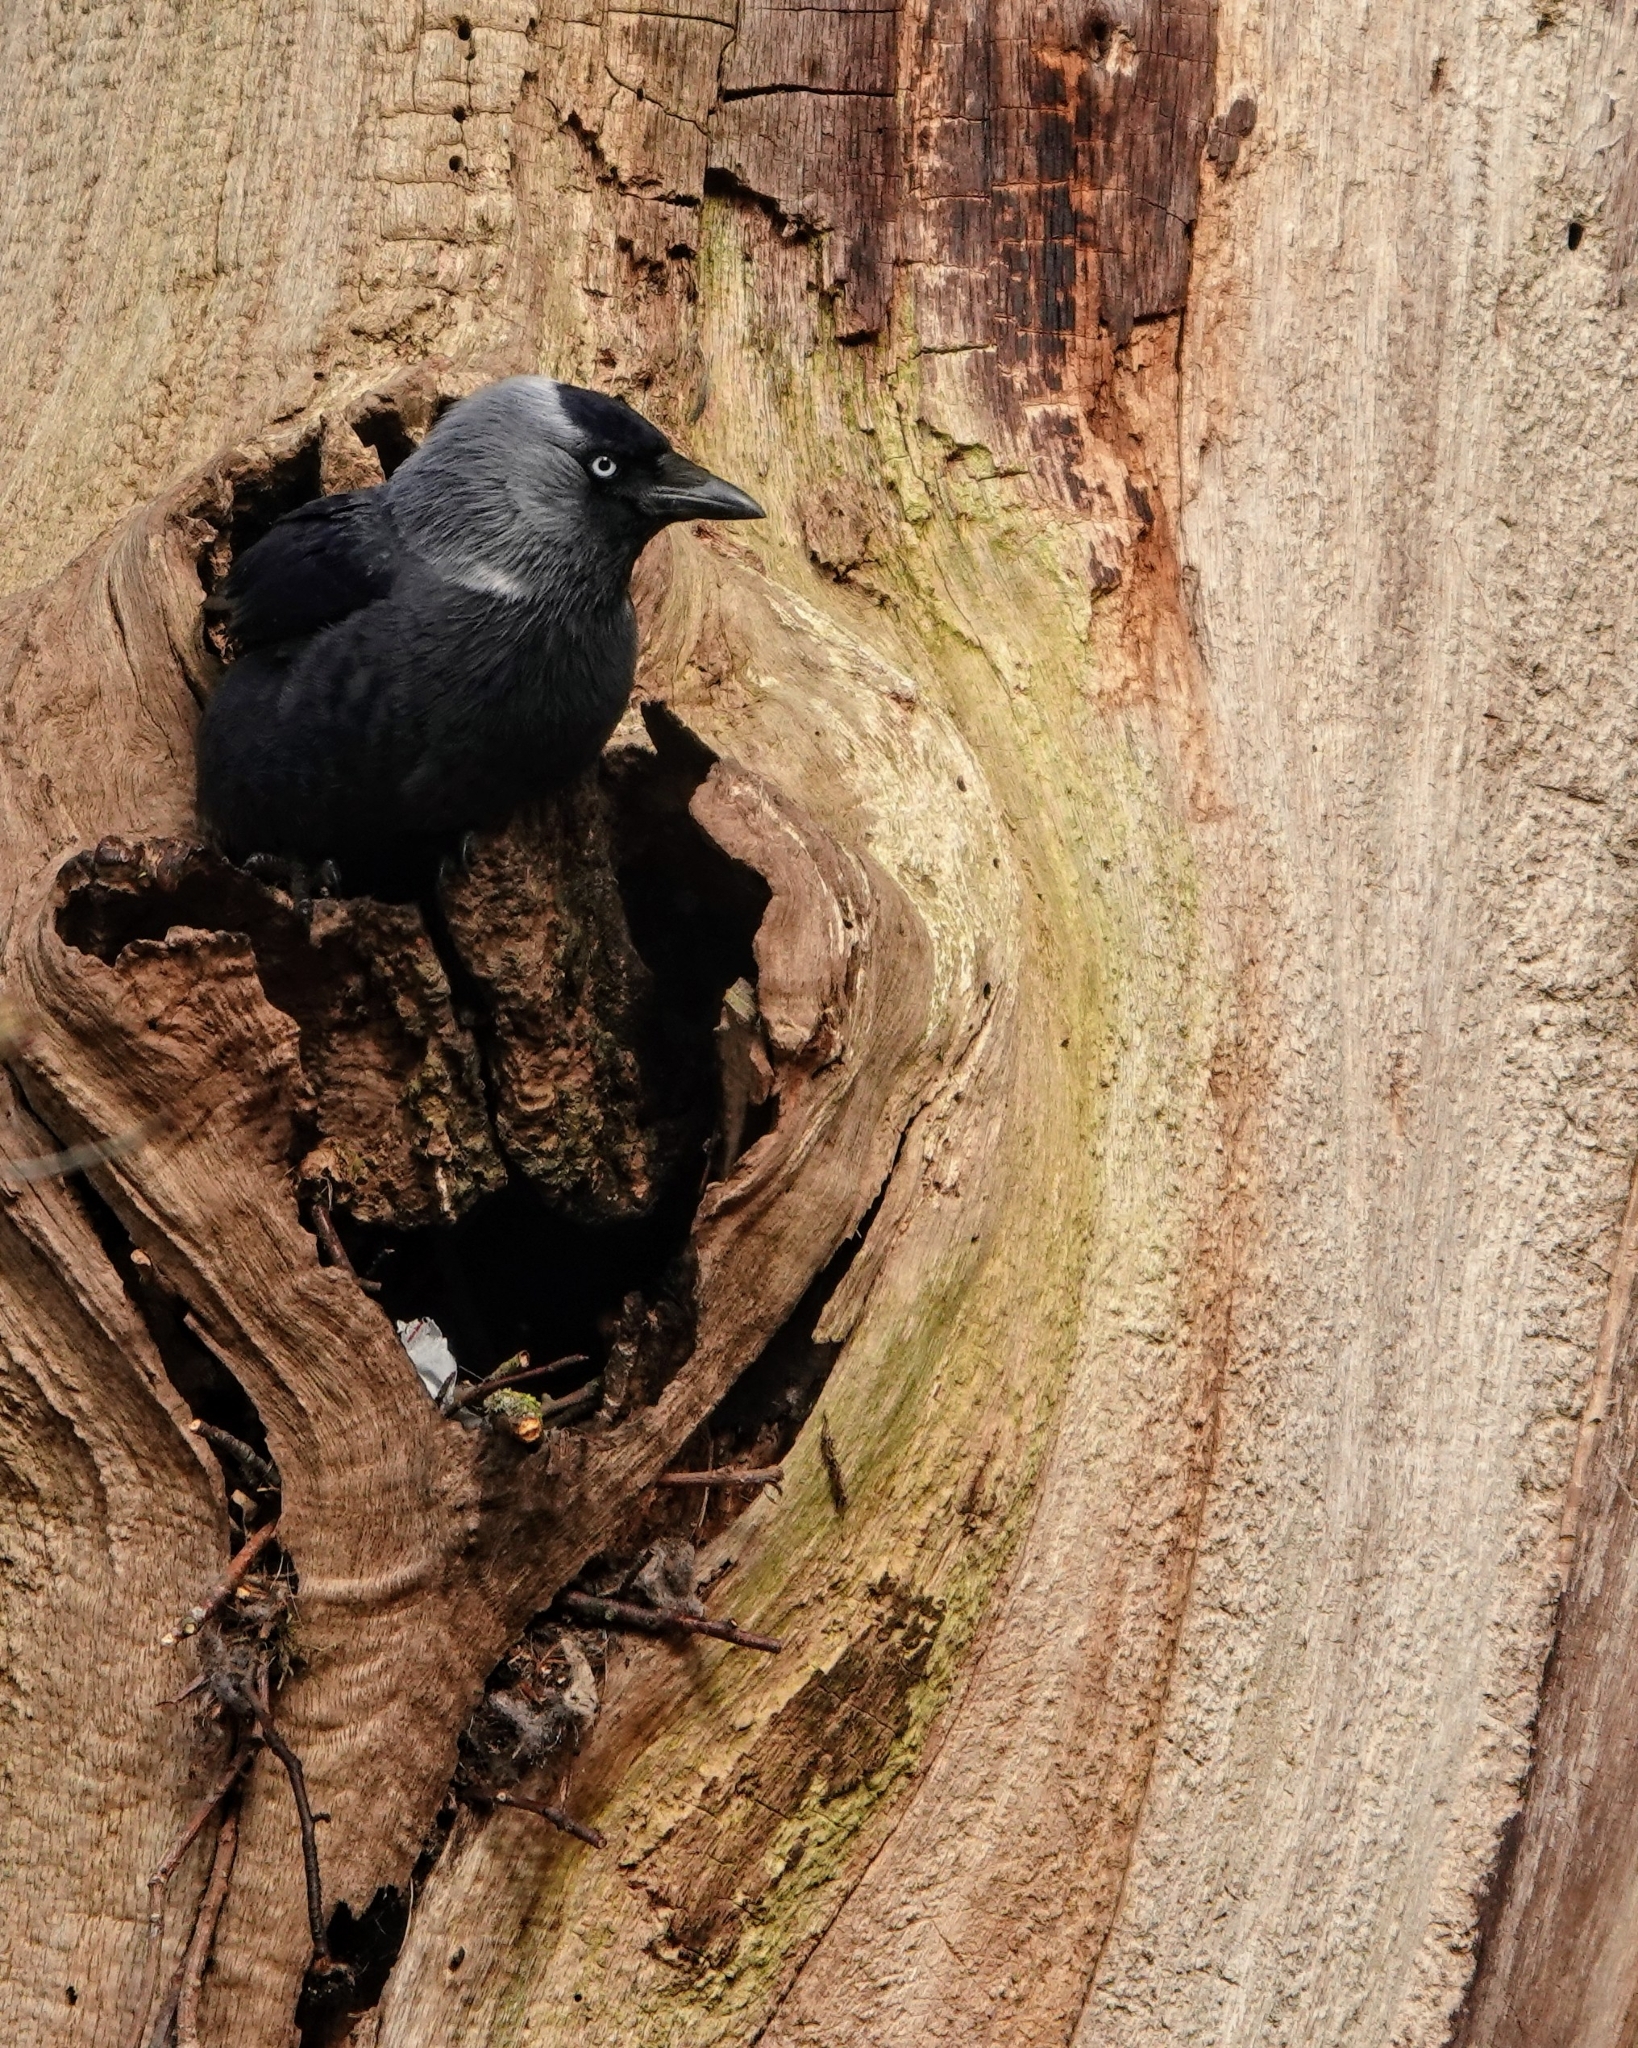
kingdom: Animalia
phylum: Chordata
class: Aves
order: Passeriformes
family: Corvidae
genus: Coloeus
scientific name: Coloeus monedula
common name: Western jackdaw
